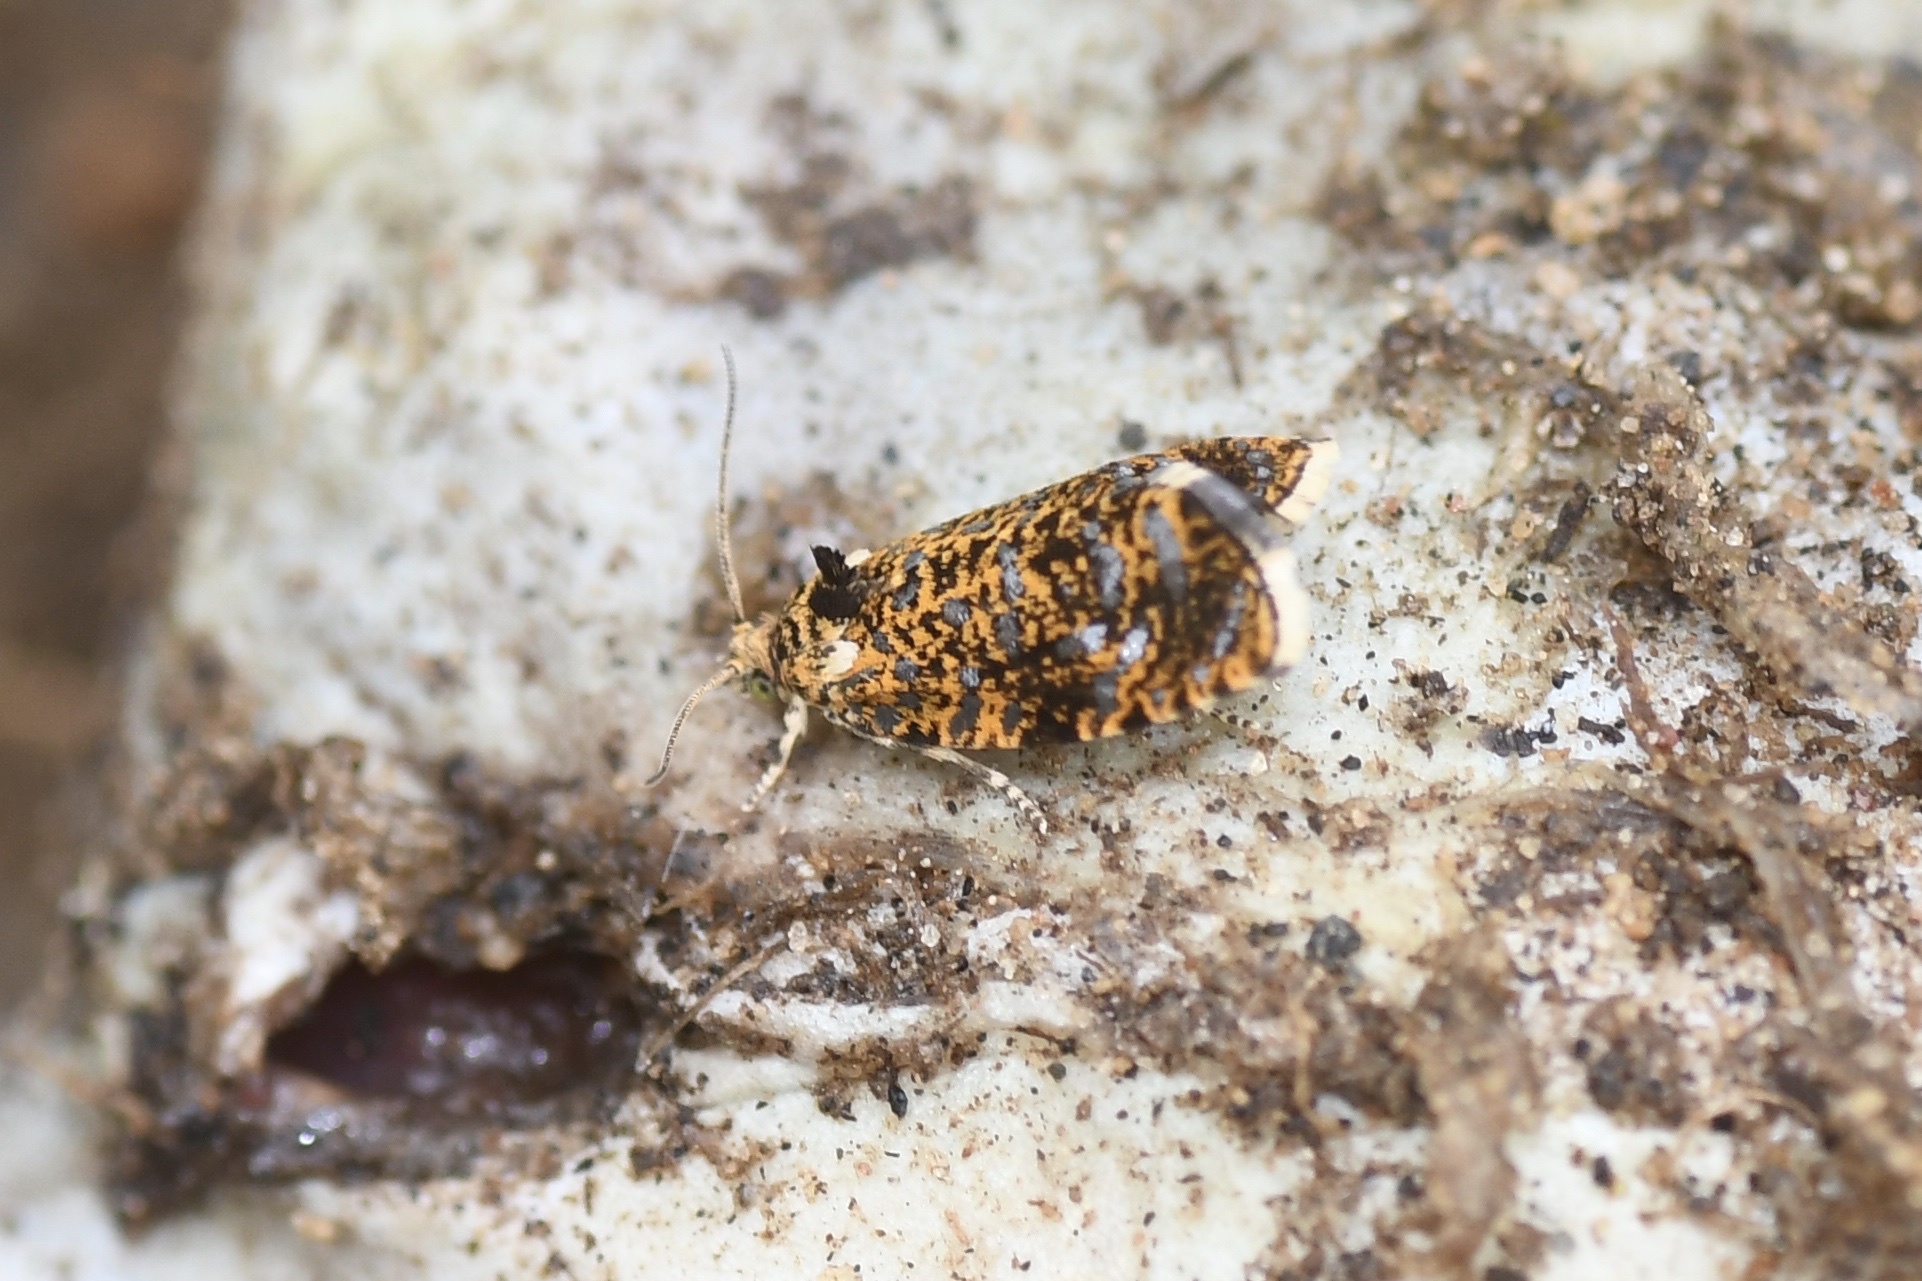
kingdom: Animalia
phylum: Arthropoda
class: Insecta
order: Lepidoptera
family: Tortricidae
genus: Olethreutes
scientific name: Olethreutes astrologana
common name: Astronomer moth
